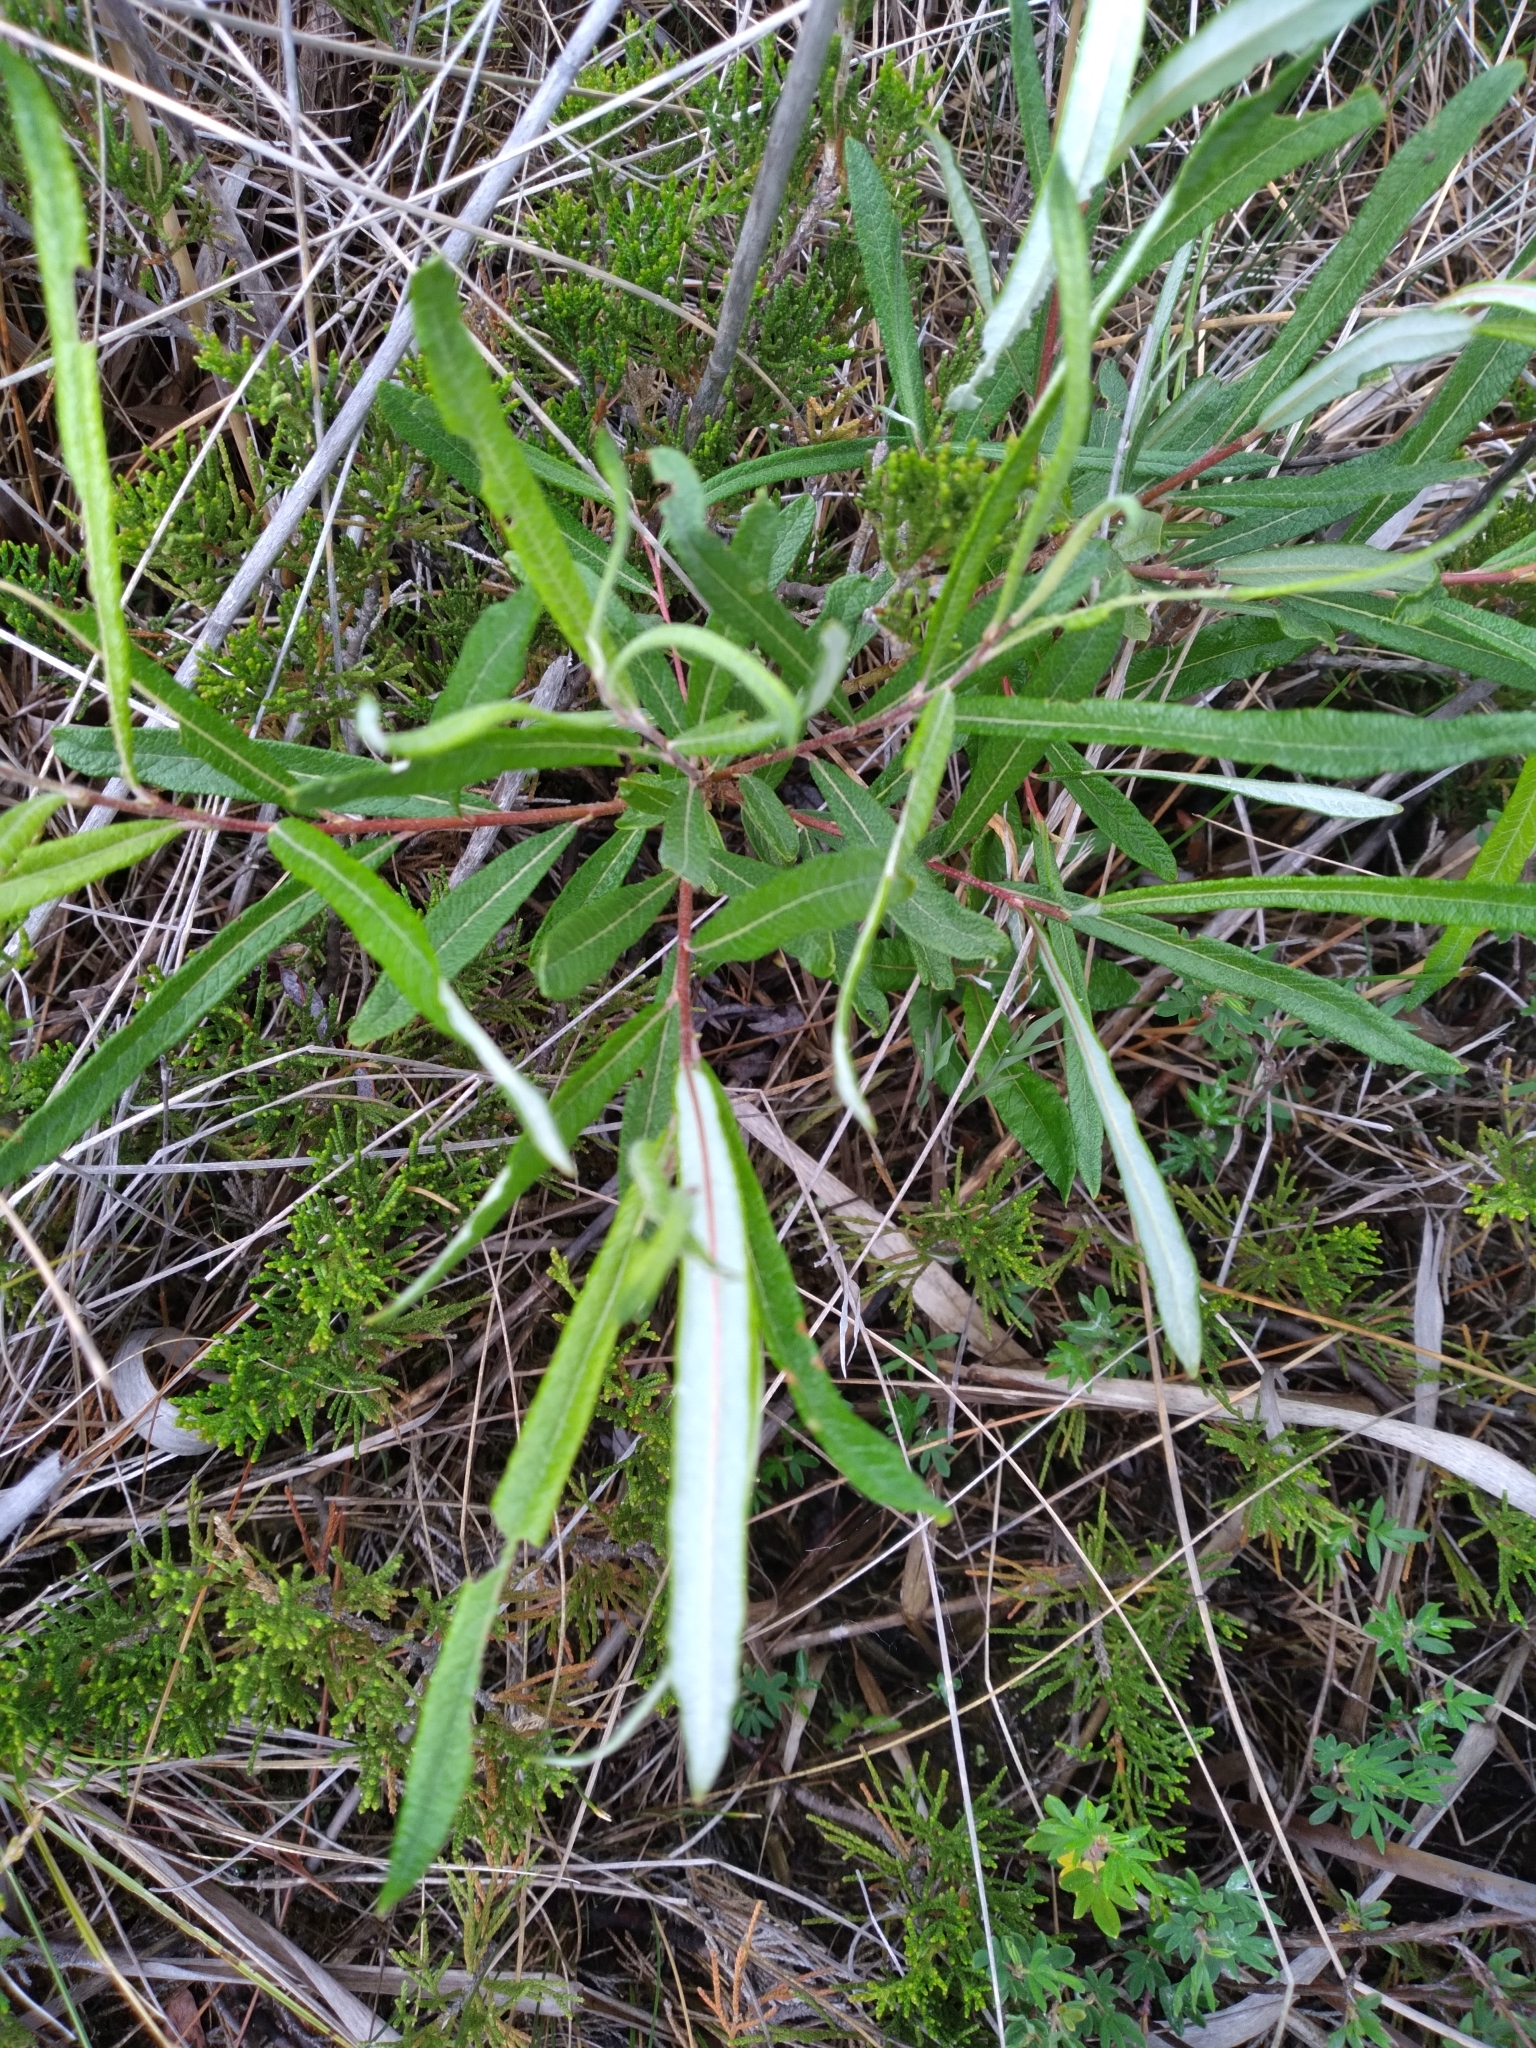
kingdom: Plantae
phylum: Tracheophyta
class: Magnoliopsida
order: Malpighiales
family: Salicaceae
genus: Salix
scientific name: Salix candida
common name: Hoary willow
